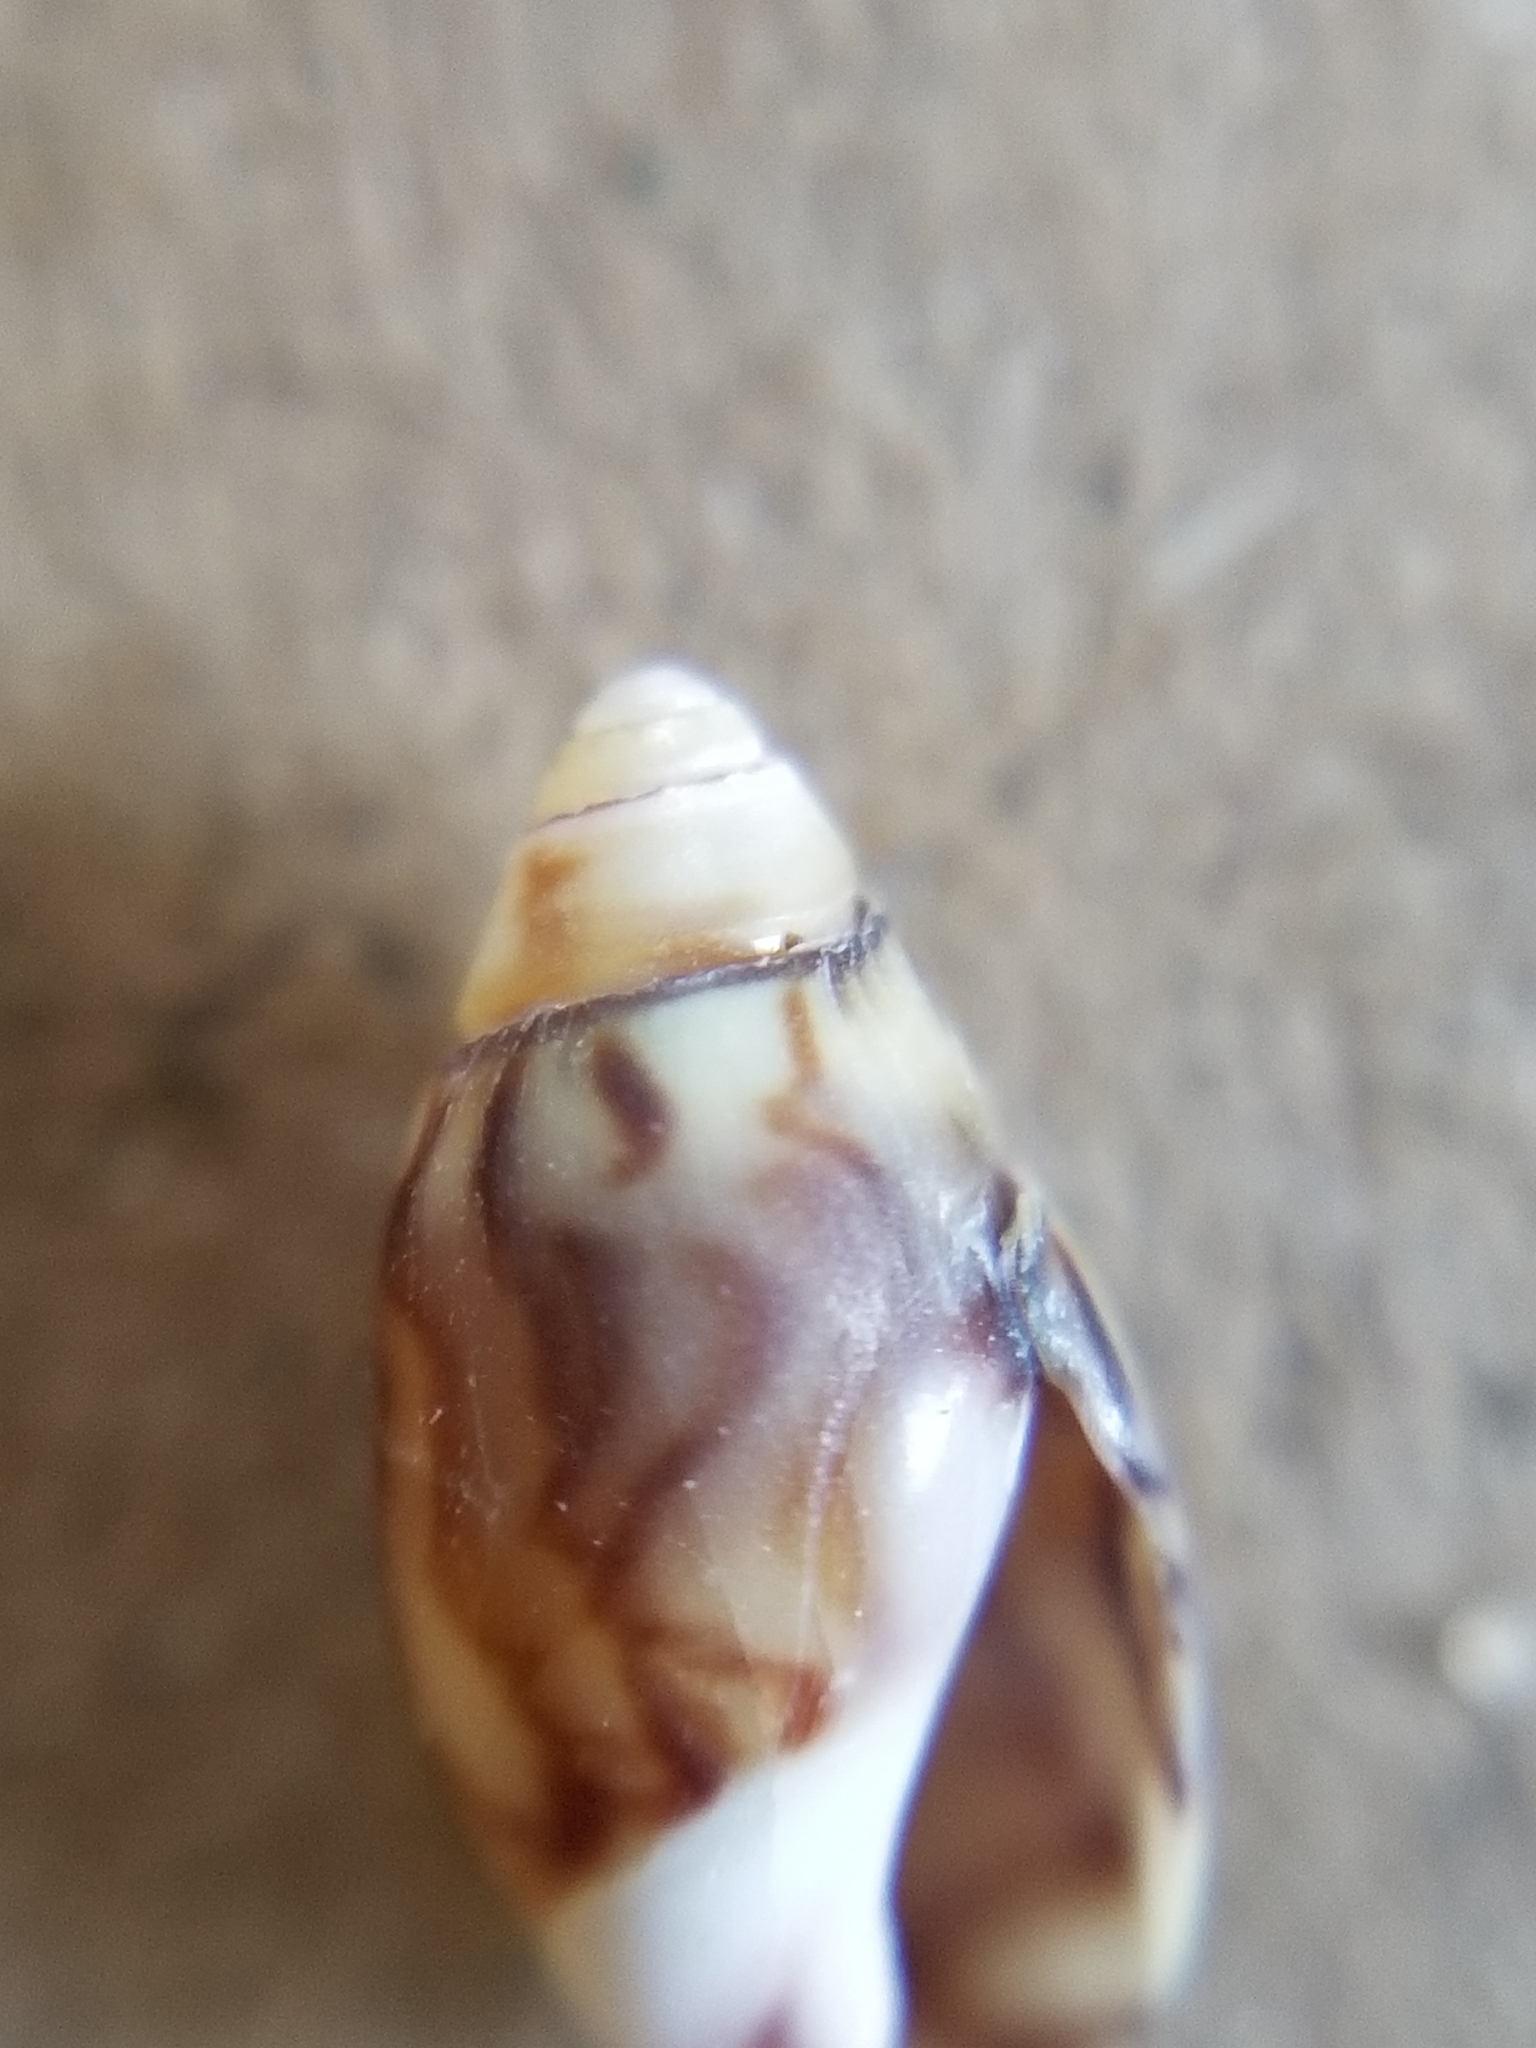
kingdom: Animalia
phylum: Mollusca
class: Gastropoda
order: Neogastropoda
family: Olividae
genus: Callianax
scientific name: Callianax alectona
